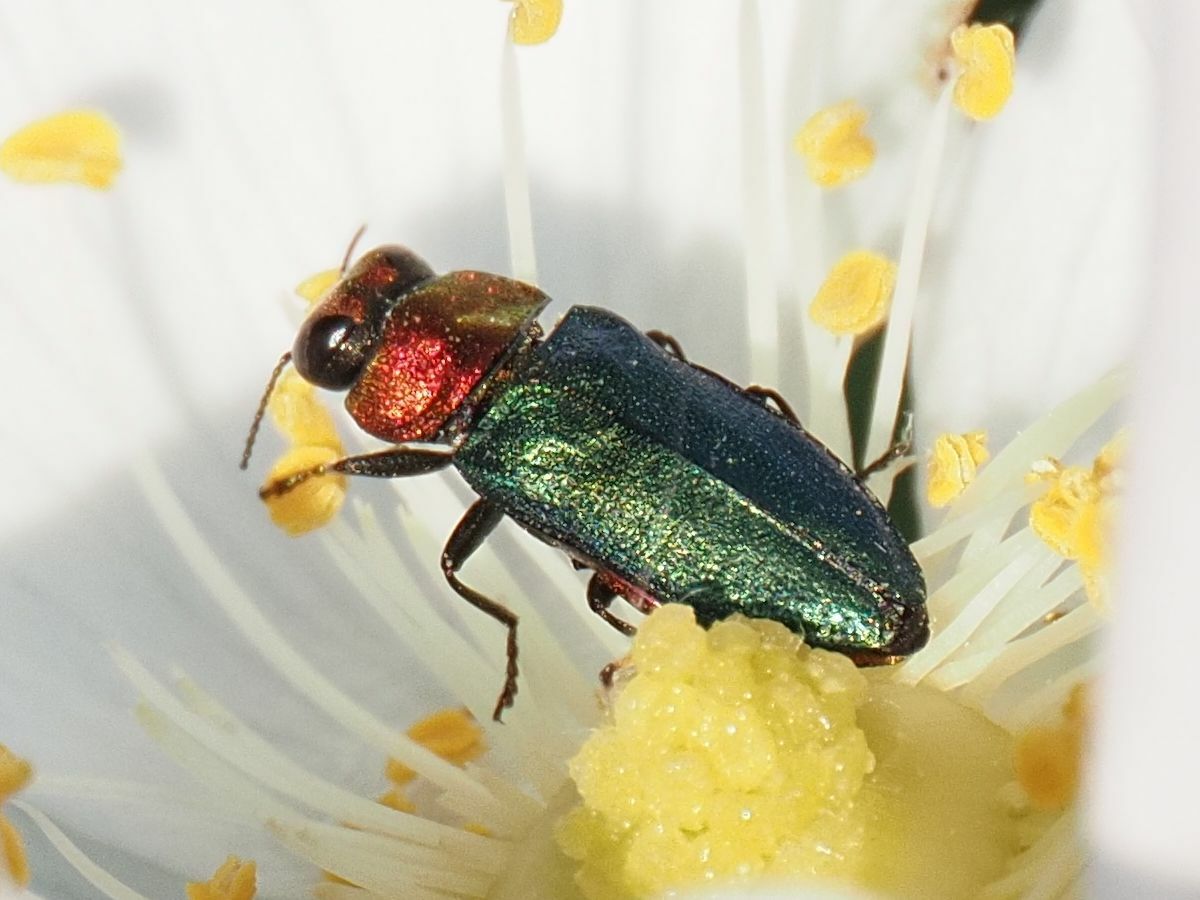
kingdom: Animalia
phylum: Arthropoda
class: Insecta
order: Coleoptera
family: Buprestidae
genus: Anthaxia
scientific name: Anthaxia nitidula
